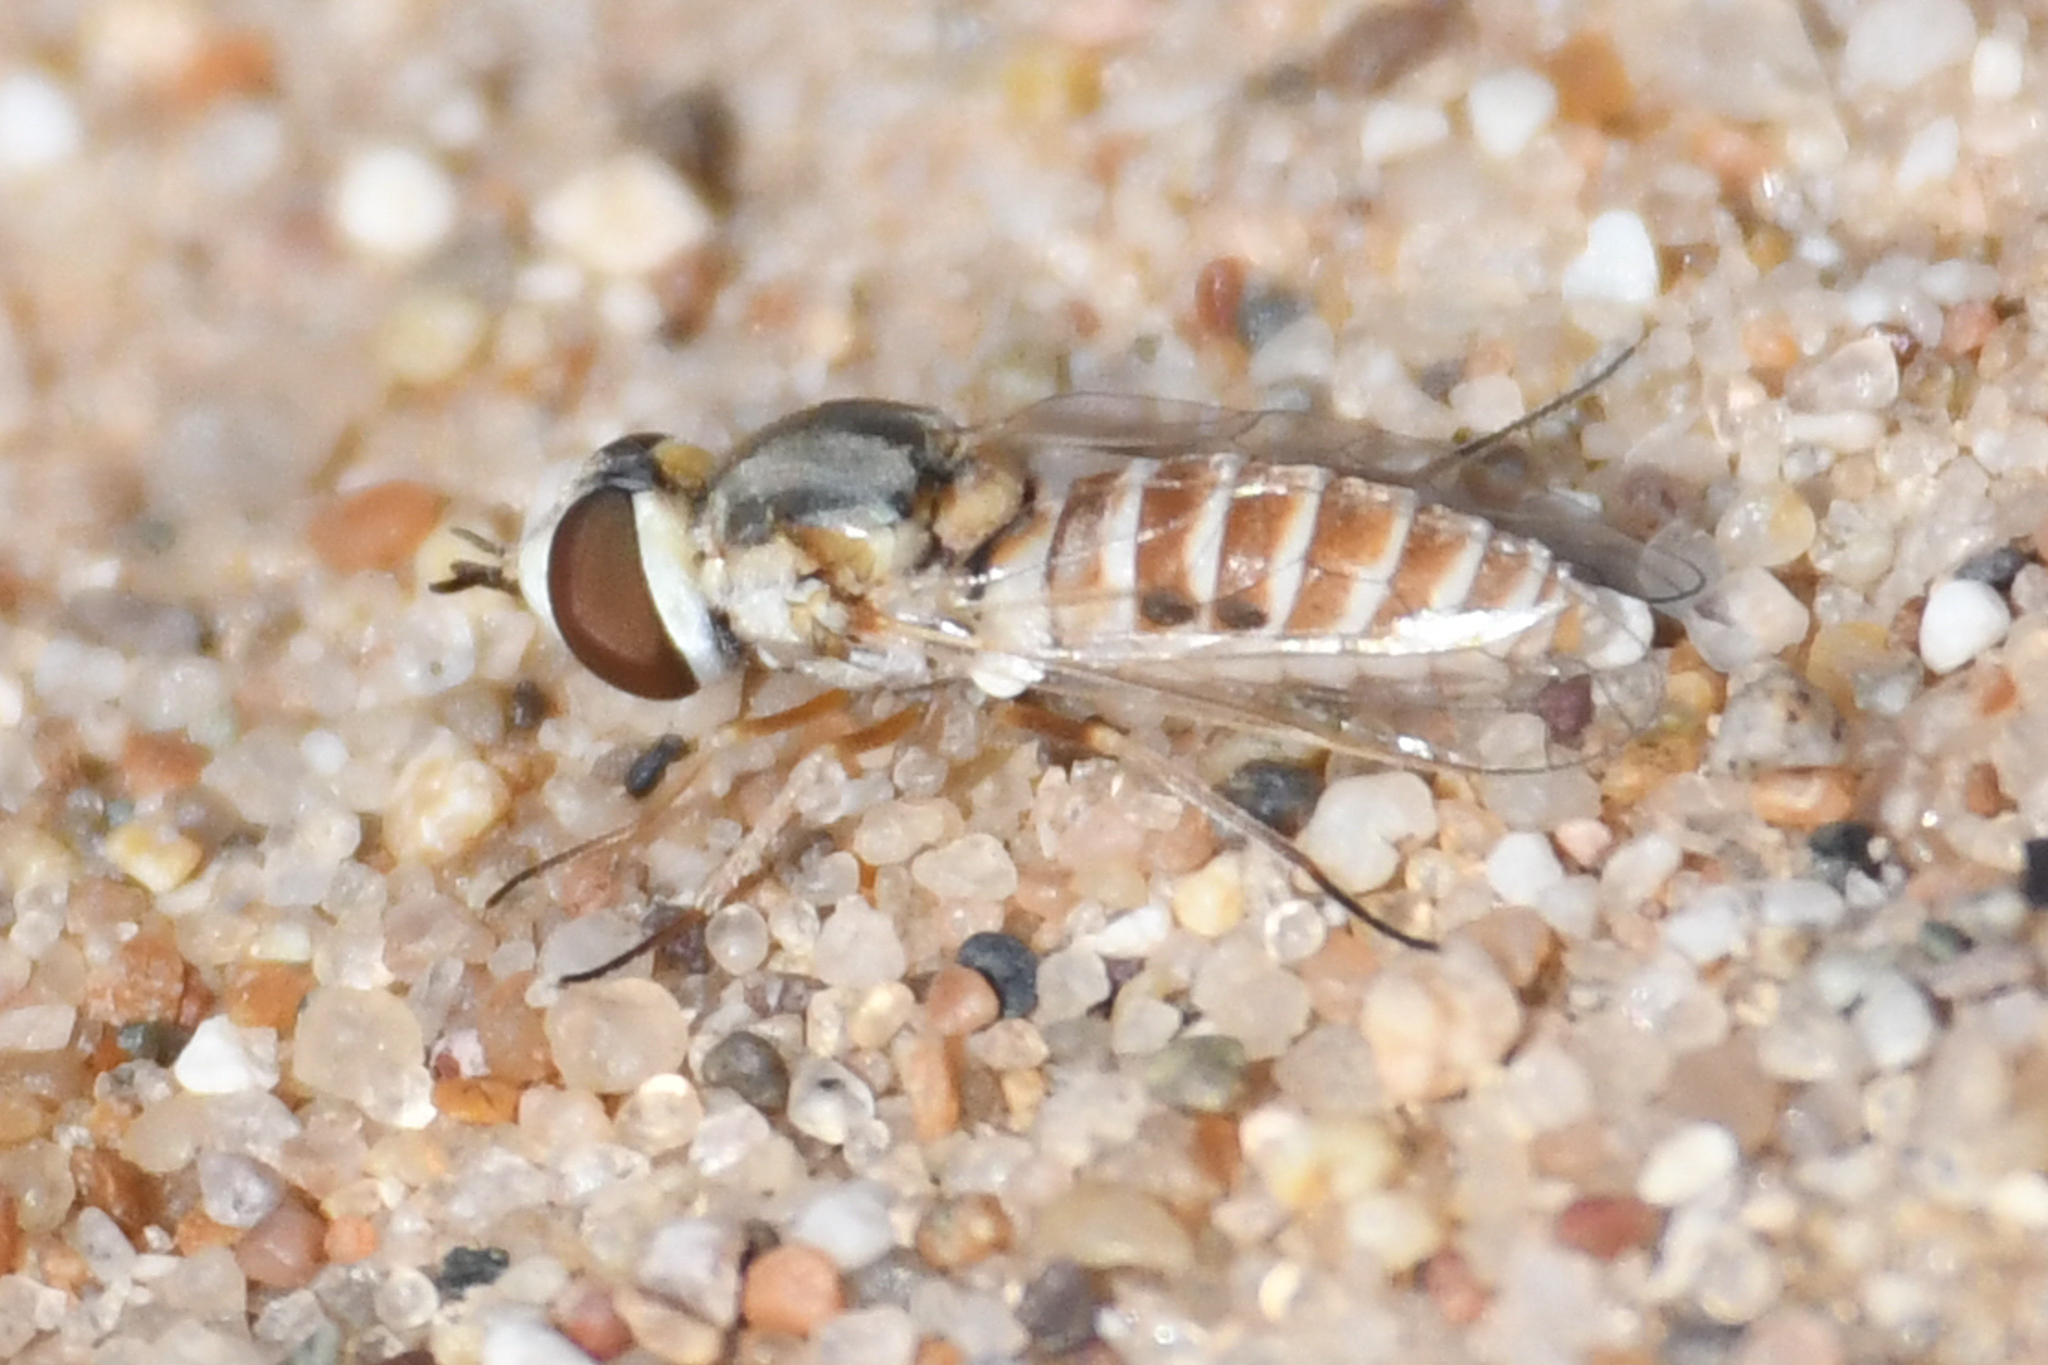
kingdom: Animalia
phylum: Arthropoda
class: Insecta
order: Diptera
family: Bombyliidae
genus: Paracosmus
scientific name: Paracosmus rubicundus
